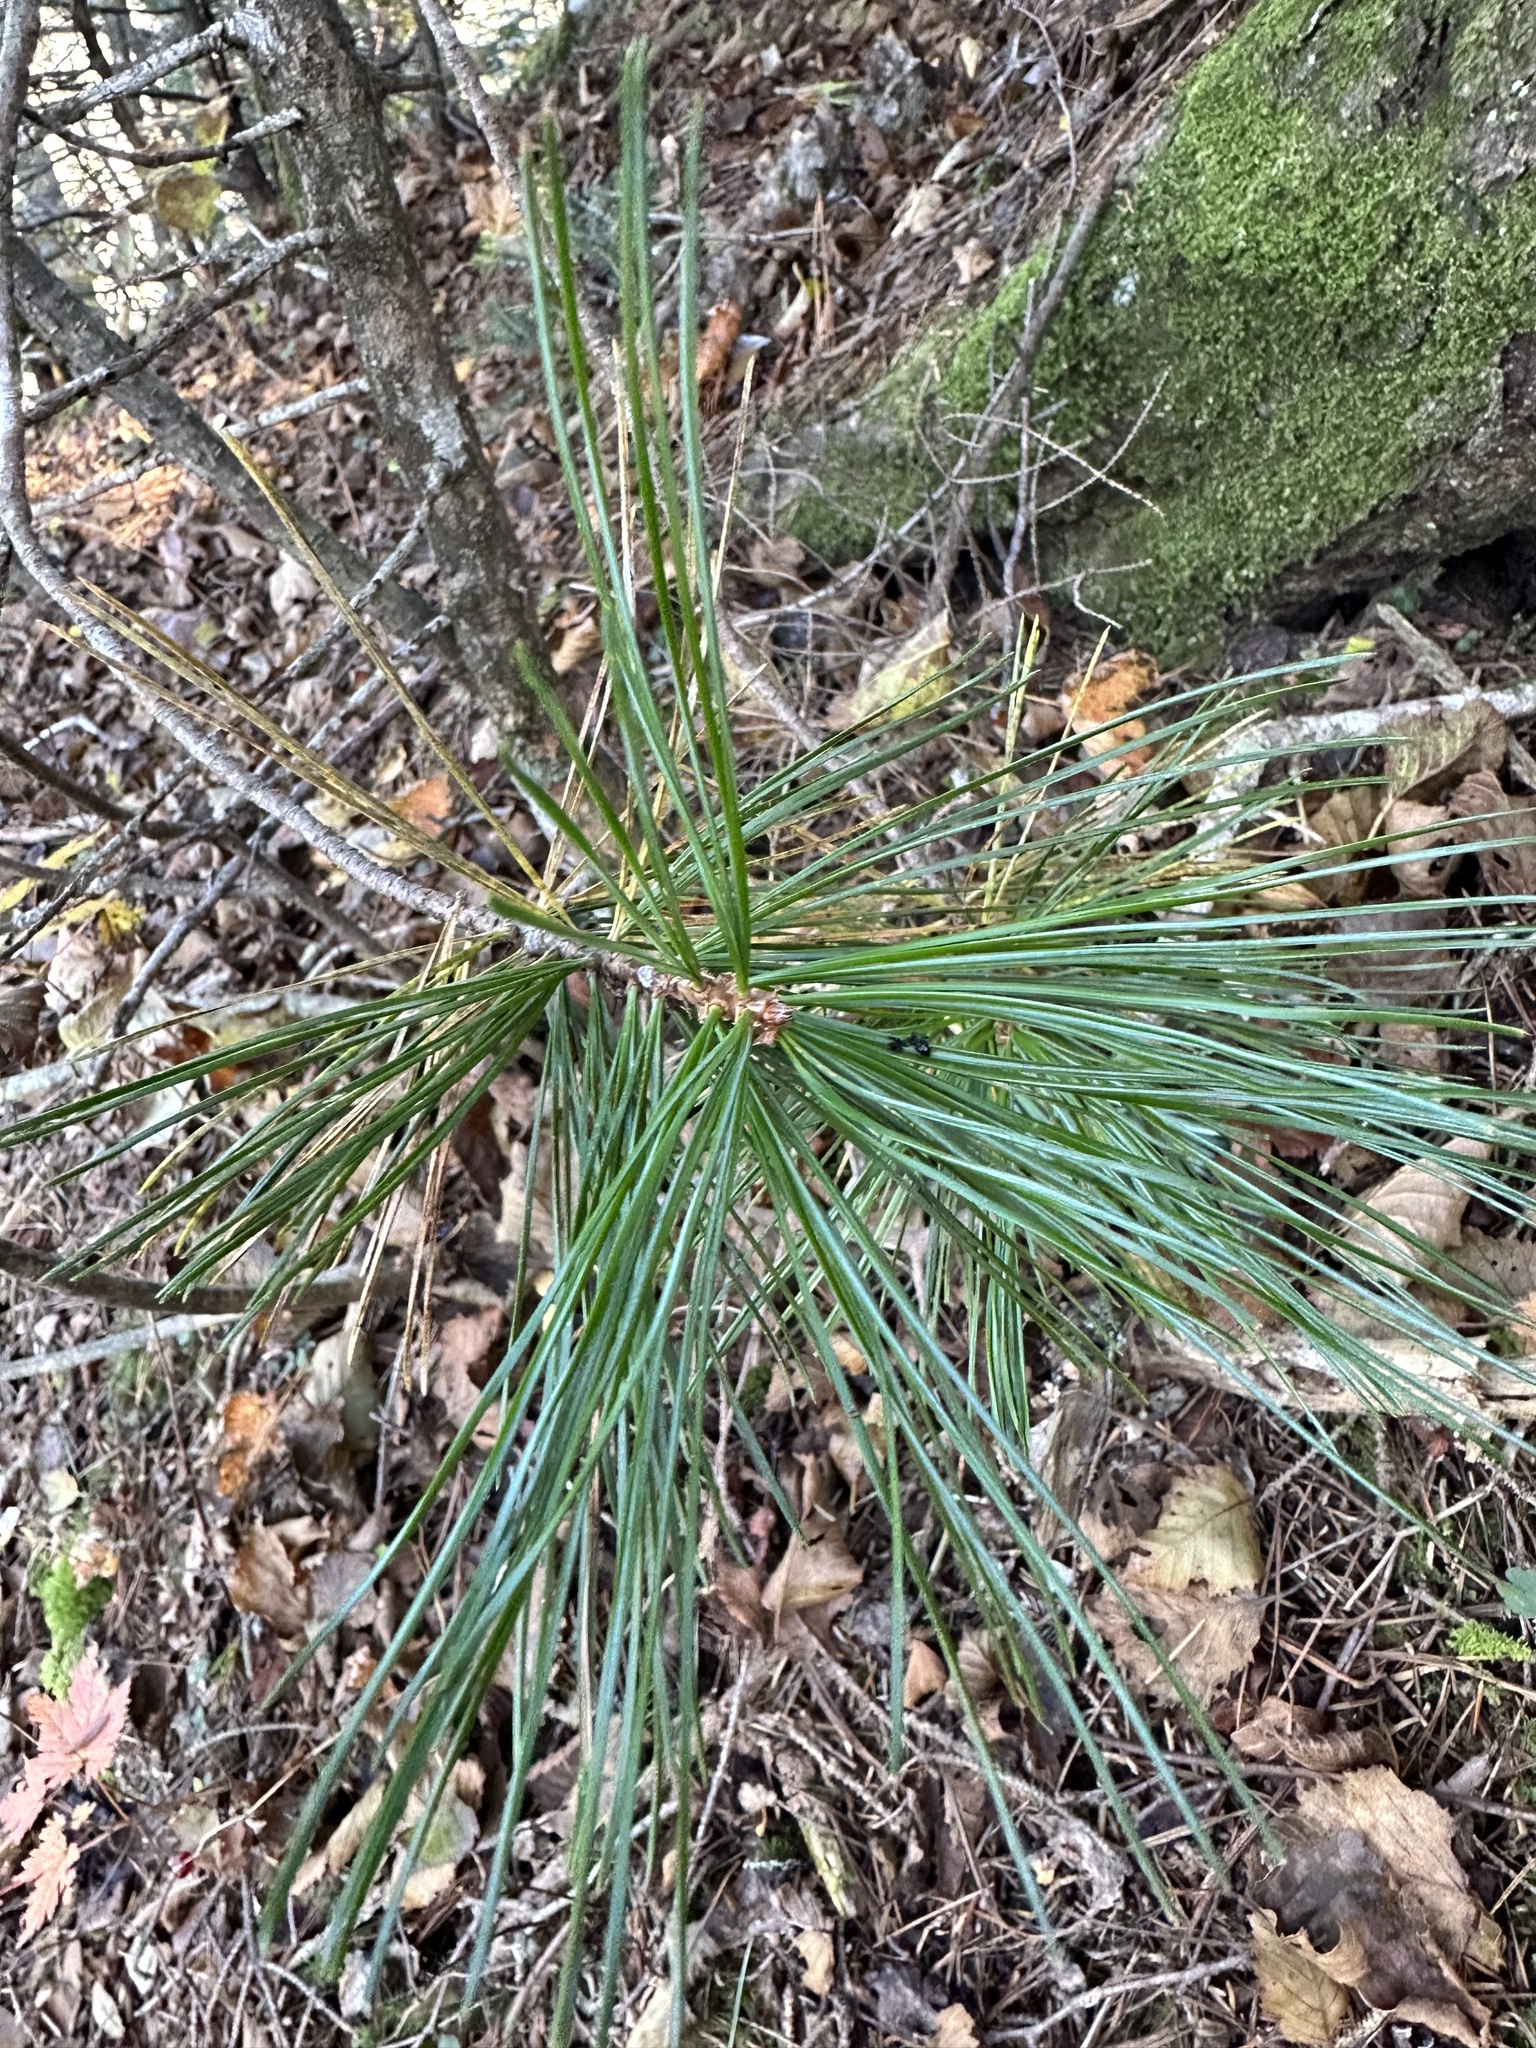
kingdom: Plantae
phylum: Tracheophyta
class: Pinopsida
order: Pinales
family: Pinaceae
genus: Pinus
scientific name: Pinus koraiensis
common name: Korean pine
